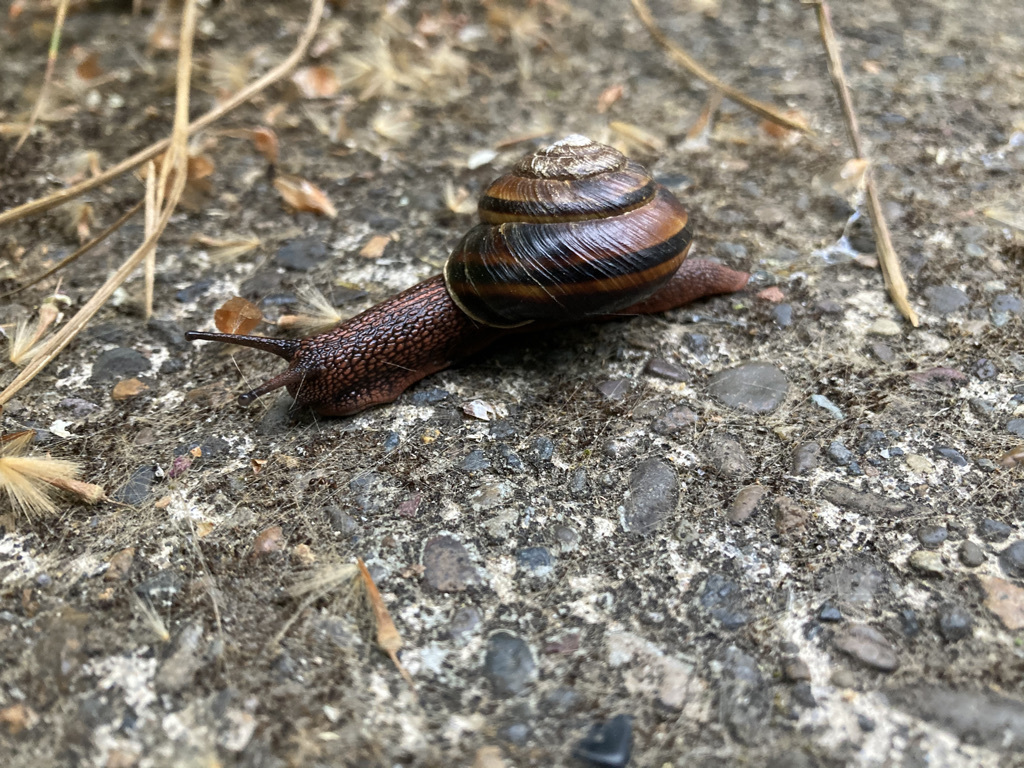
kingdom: Animalia
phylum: Mollusca
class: Gastropoda
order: Stylommatophora
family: Xanthonychidae
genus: Monadenia
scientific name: Monadenia fidelis
